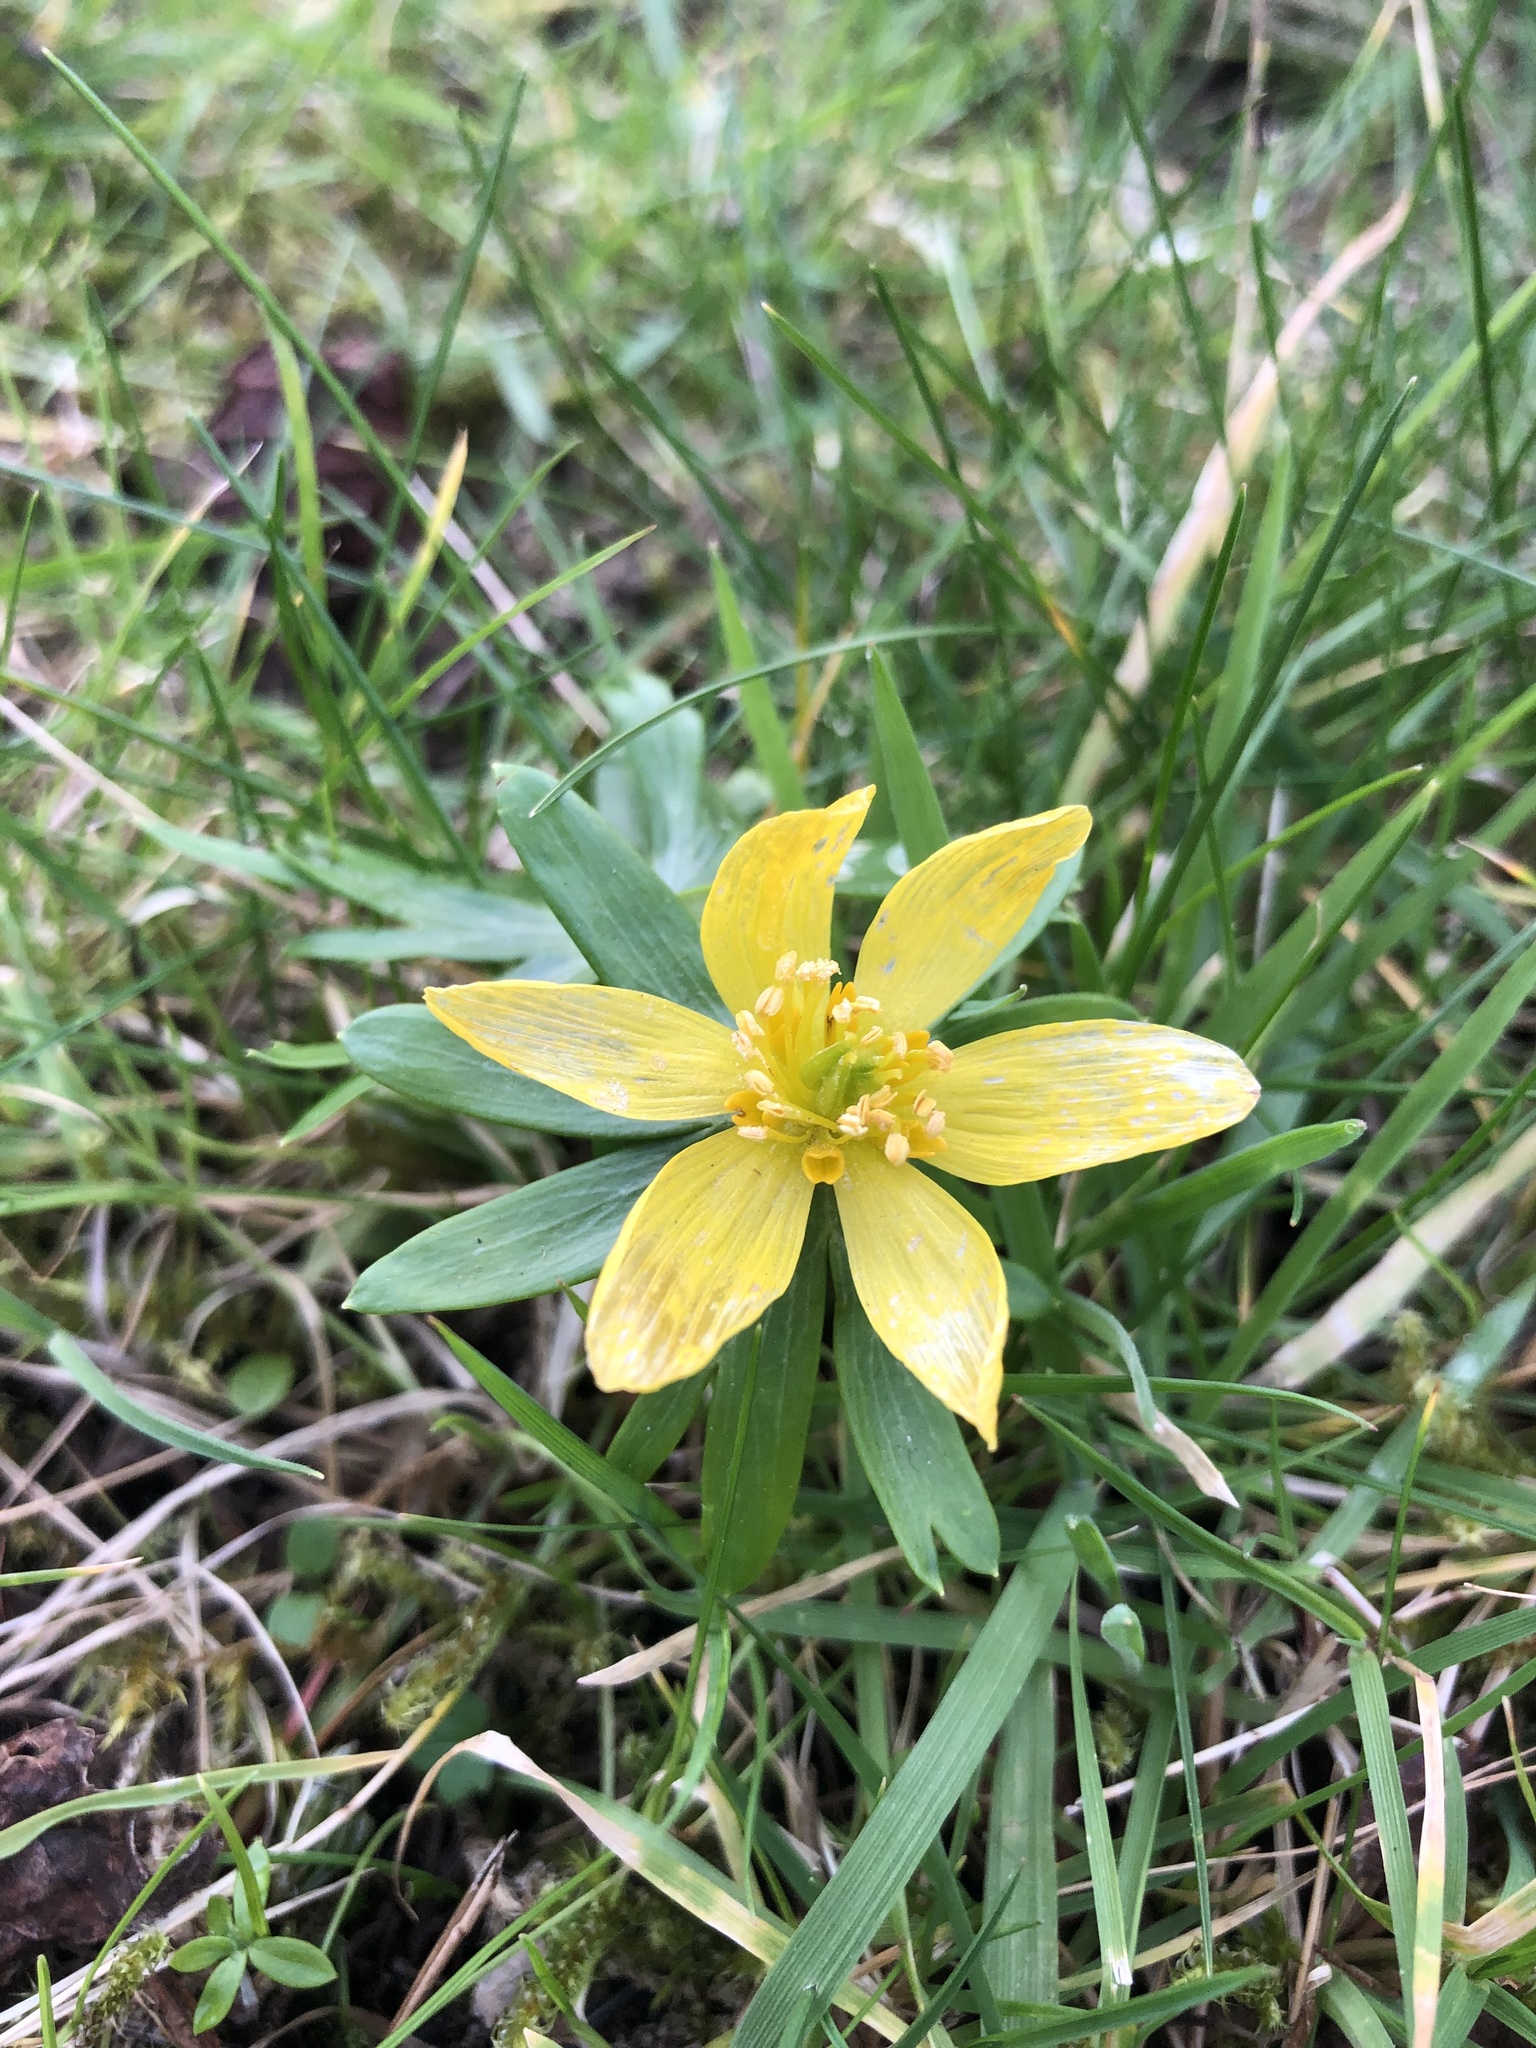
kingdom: Plantae
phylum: Tracheophyta
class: Magnoliopsida
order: Ranunculales
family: Ranunculaceae
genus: Eranthis
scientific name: Eranthis hyemalis
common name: Winter aconite
